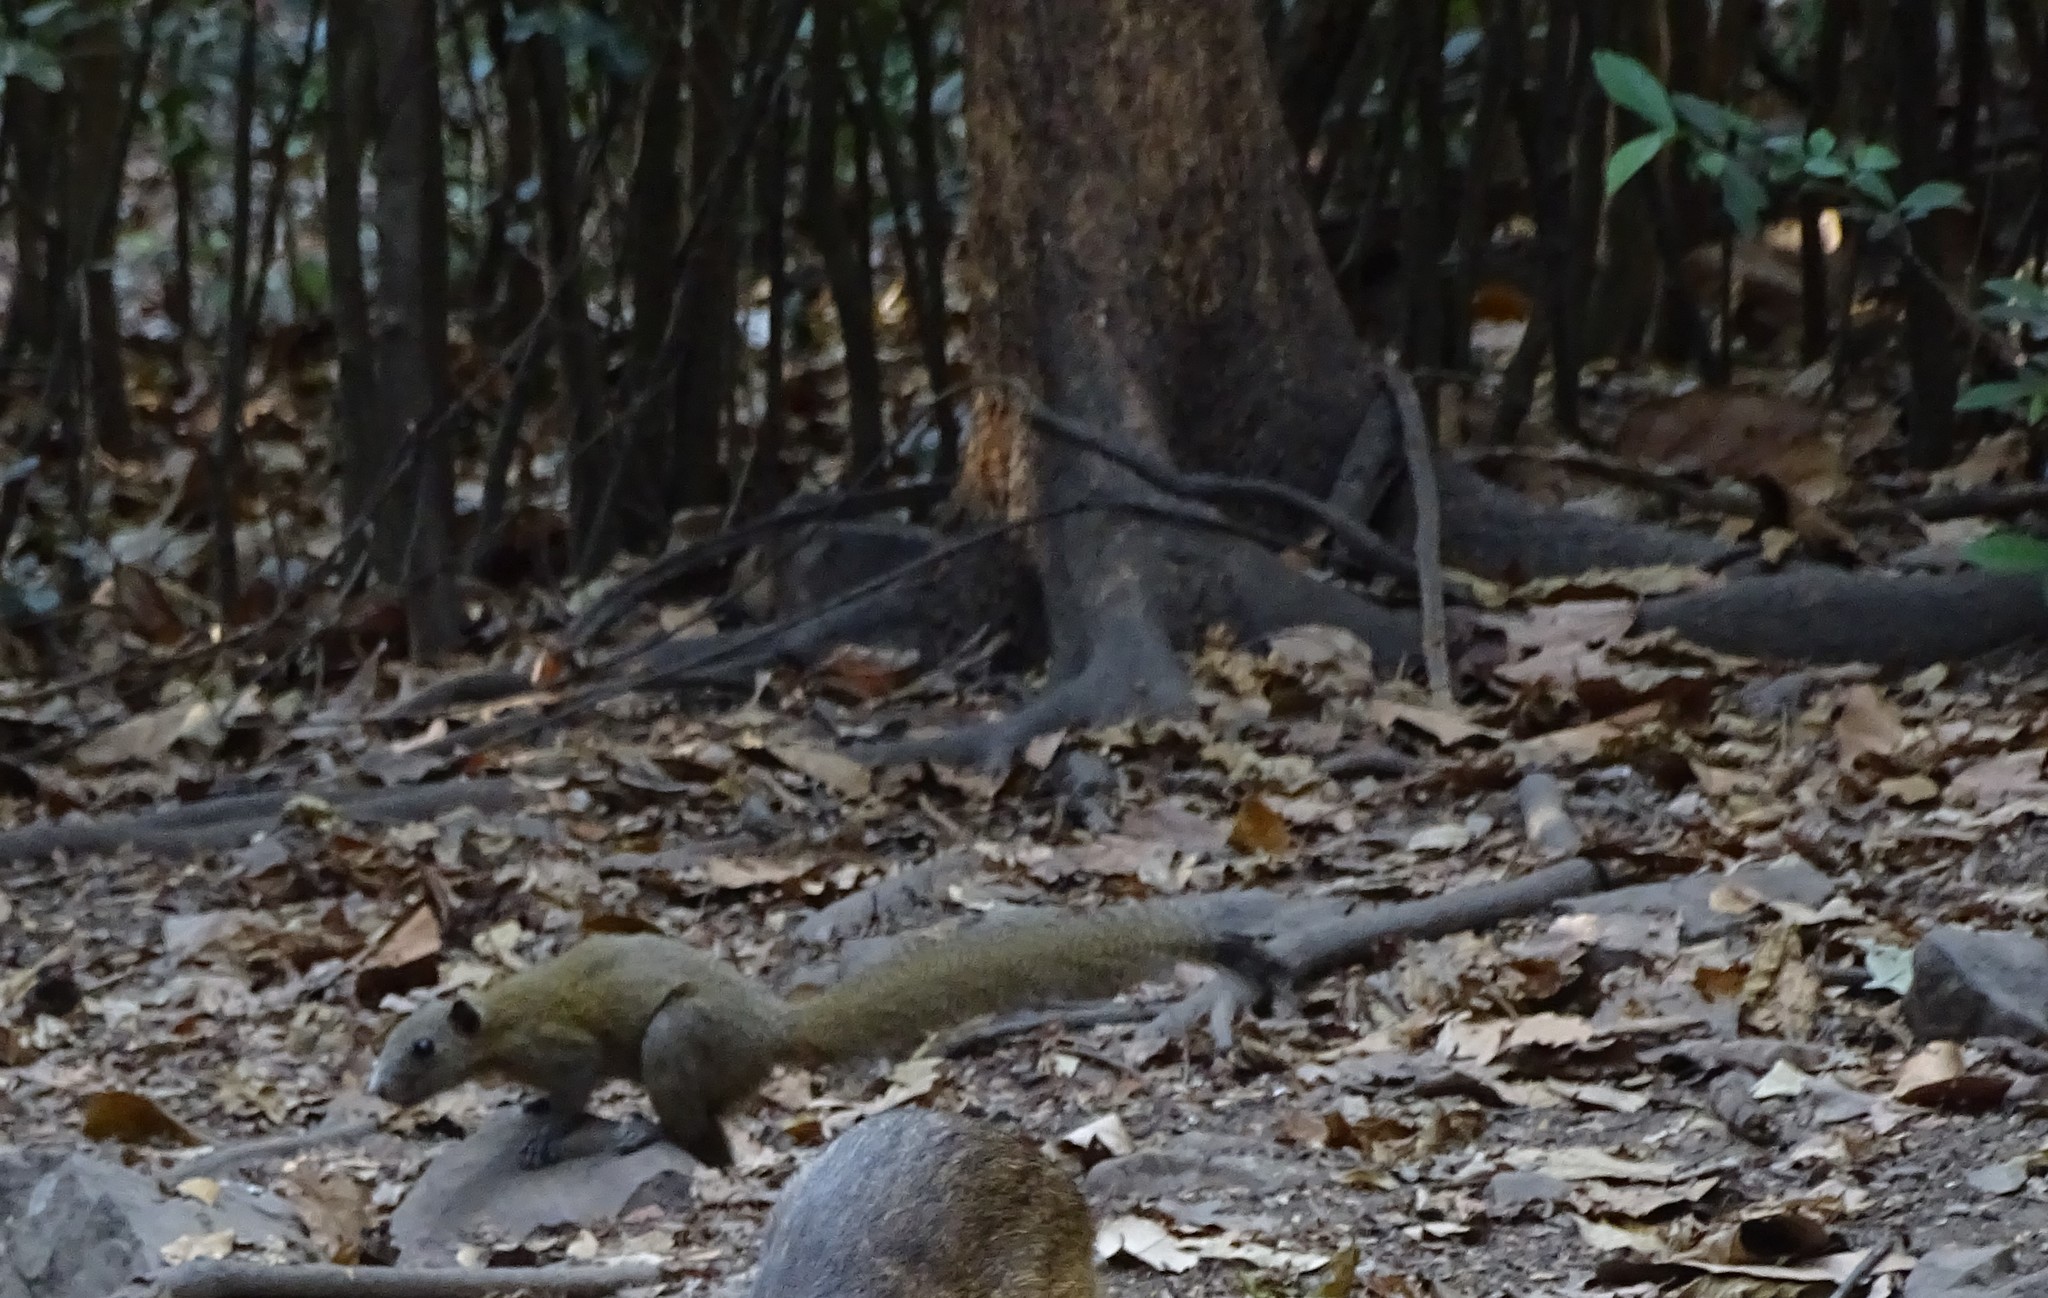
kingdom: Animalia
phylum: Chordata
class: Mammalia
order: Rodentia
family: Sciuridae
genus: Callosciurus
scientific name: Callosciurus caniceps
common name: Gray-bellied squirrel
